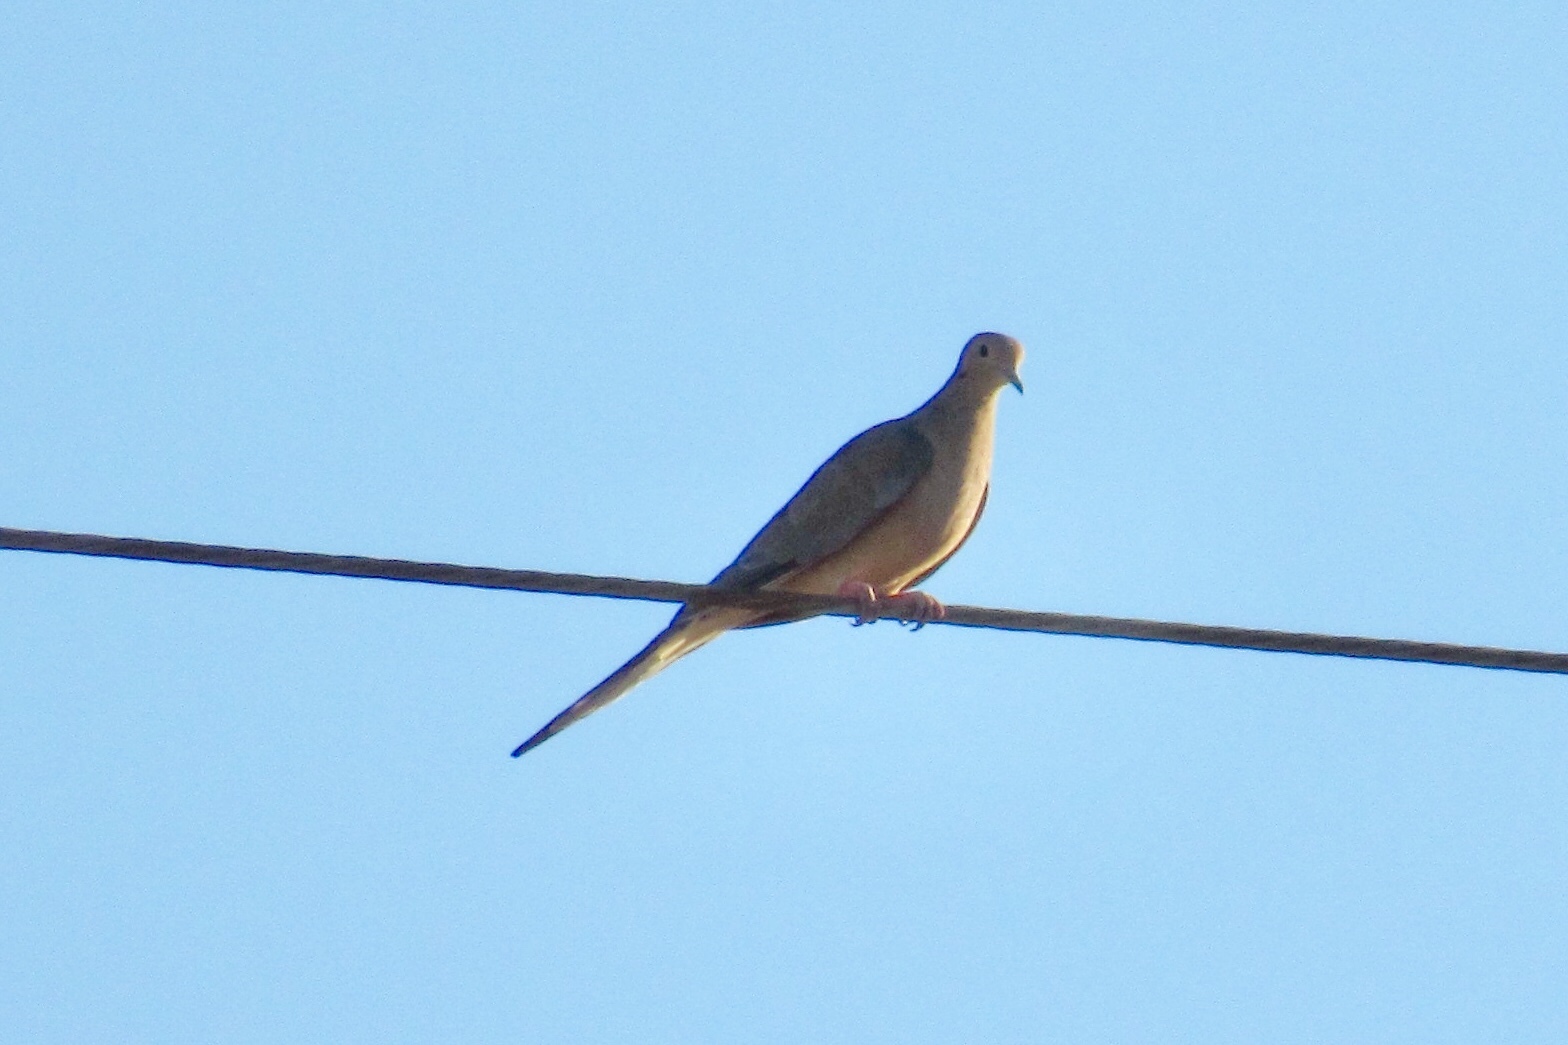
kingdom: Animalia
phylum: Chordata
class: Aves
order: Columbiformes
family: Columbidae
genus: Zenaida
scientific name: Zenaida macroura
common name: Mourning dove
